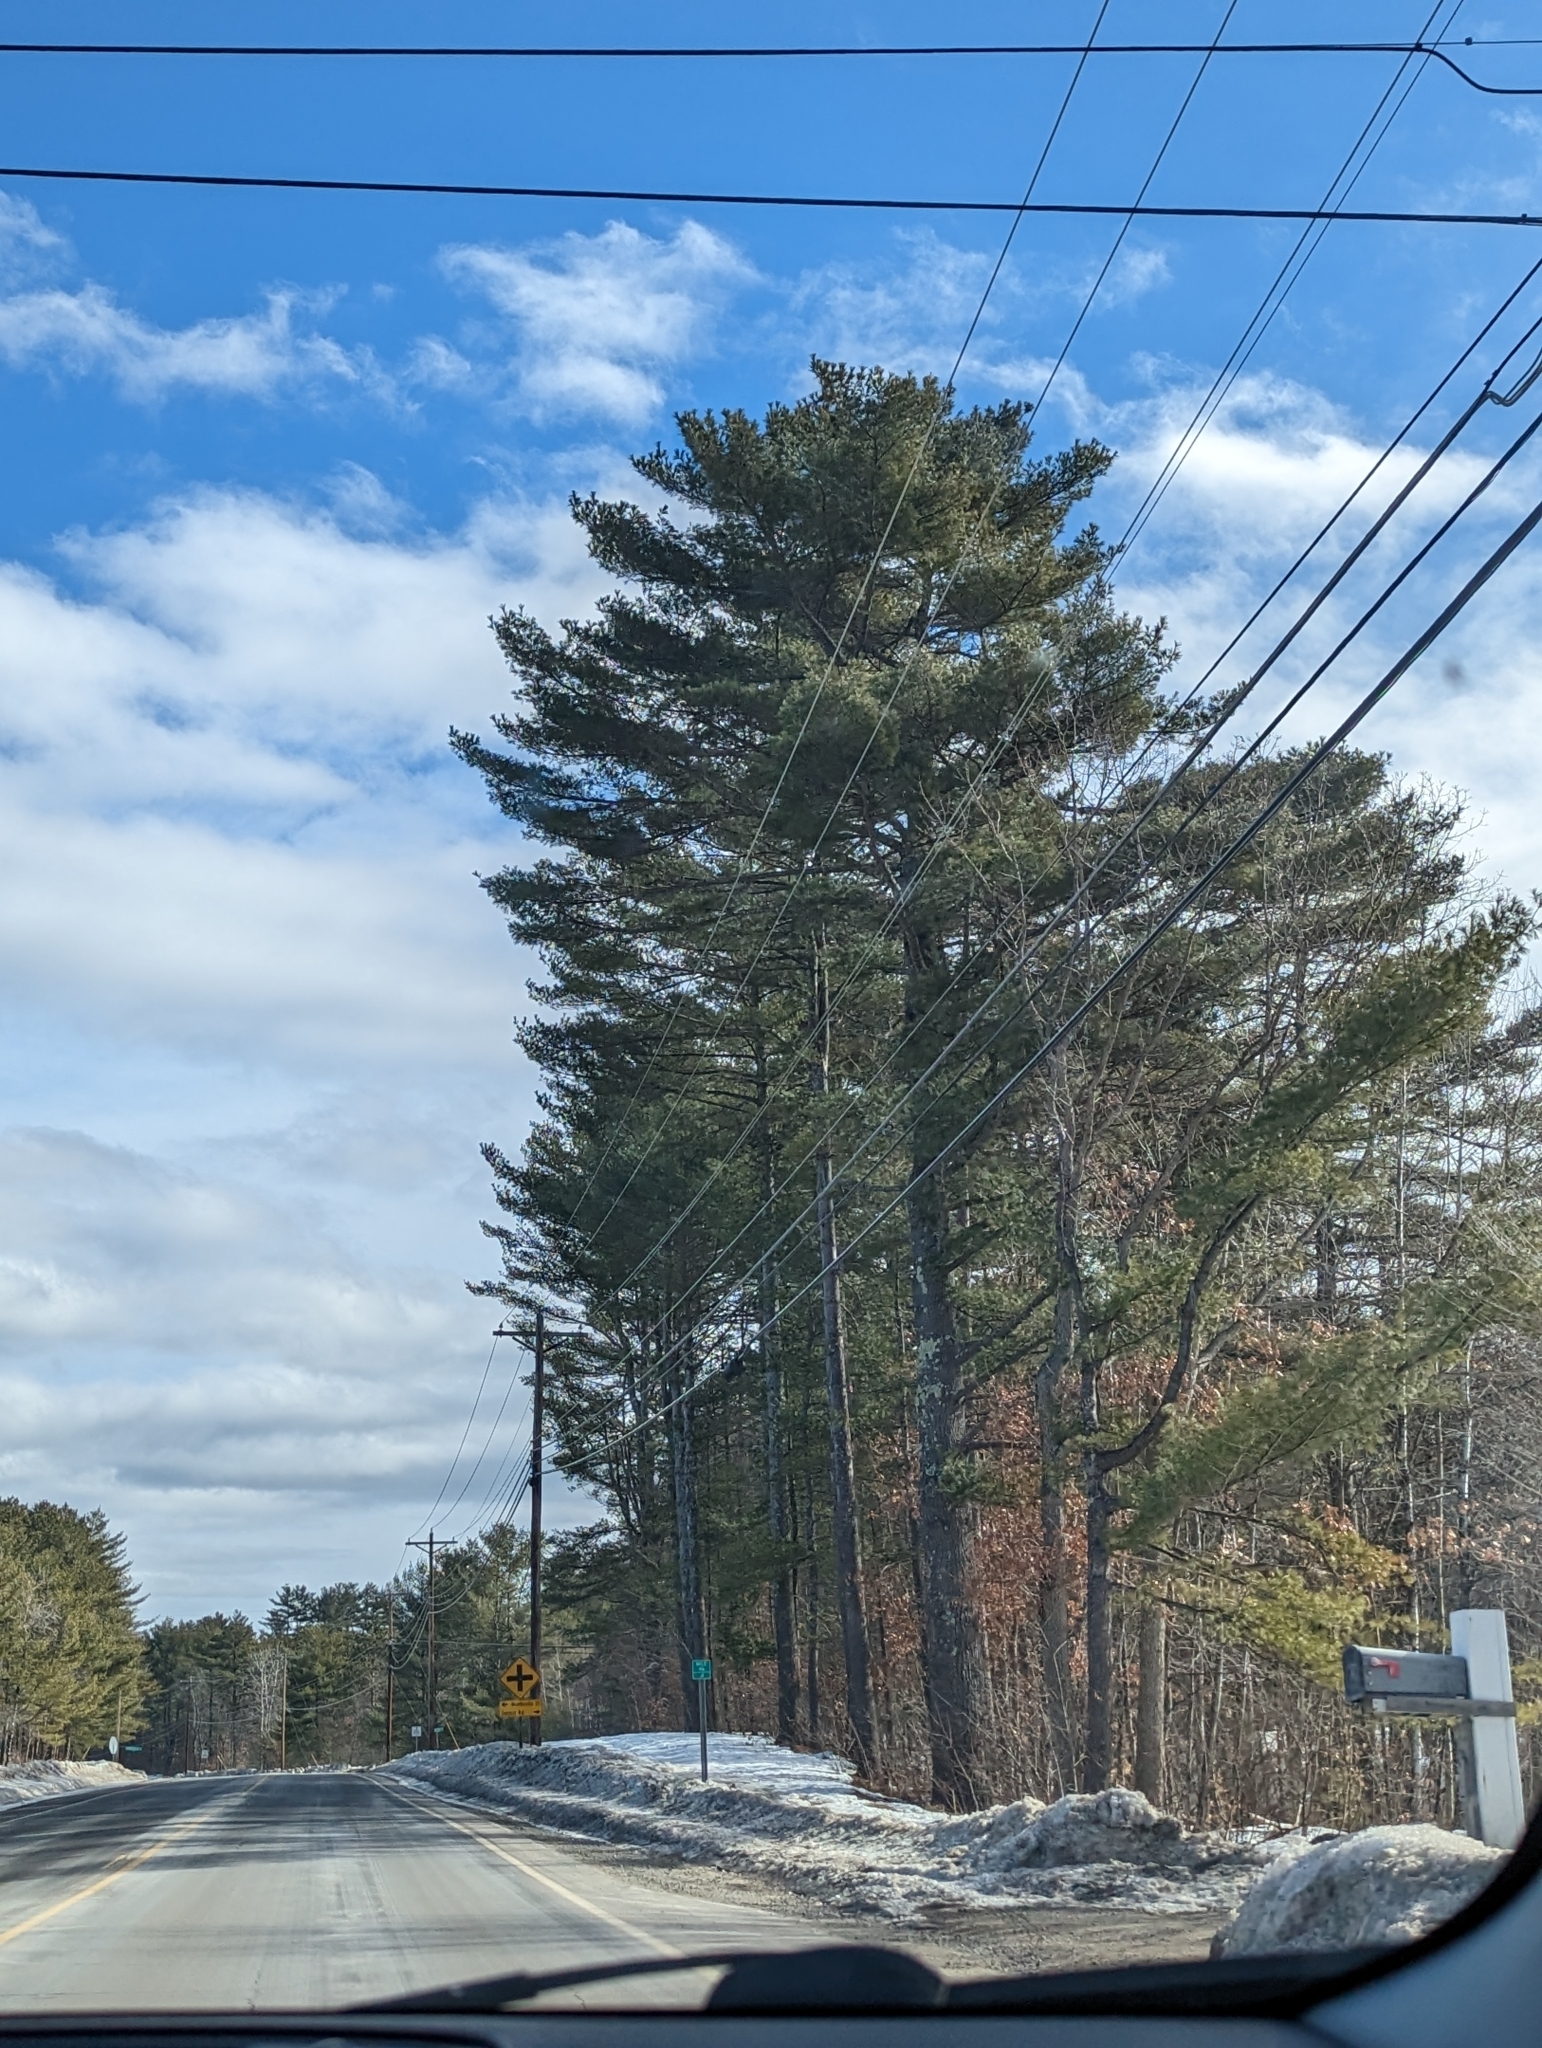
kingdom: Plantae
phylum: Tracheophyta
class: Pinopsida
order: Pinales
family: Pinaceae
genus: Pinus
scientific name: Pinus strobus
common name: Weymouth pine
